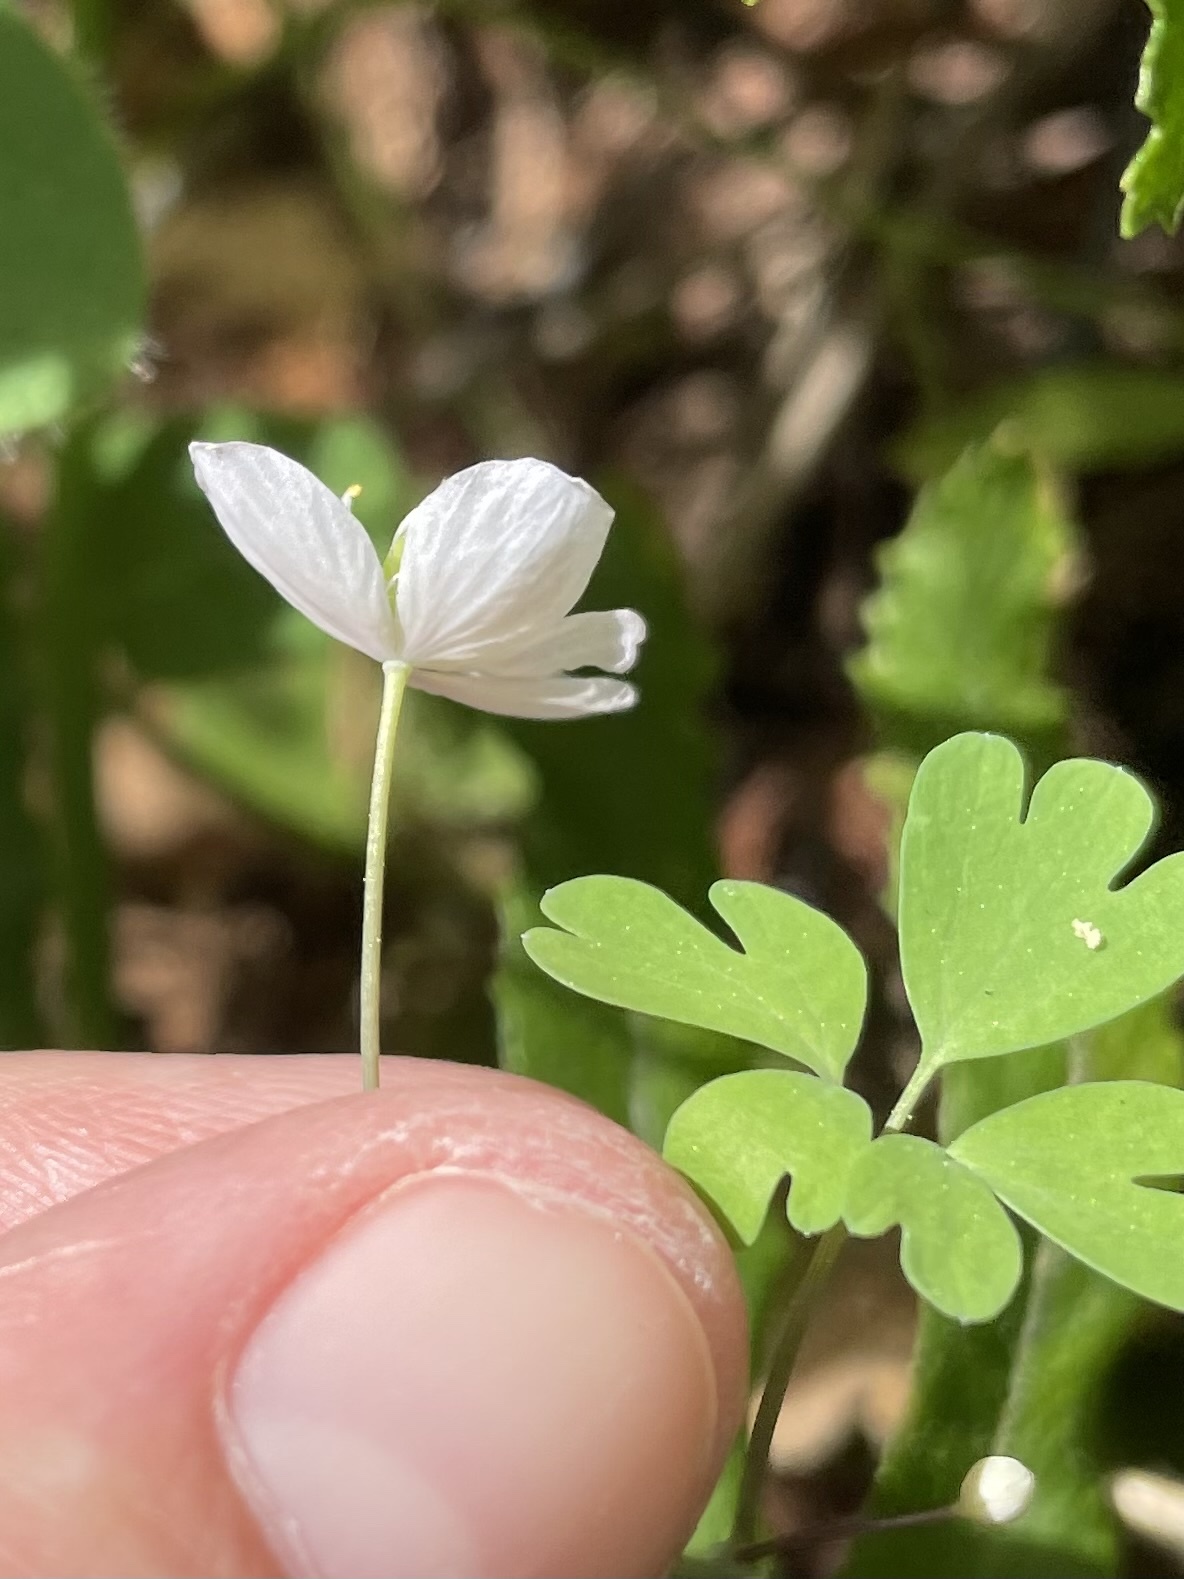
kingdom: Plantae
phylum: Tracheophyta
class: Magnoliopsida
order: Ranunculales
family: Ranunculaceae
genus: Enemion
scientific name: Enemion occidentale
